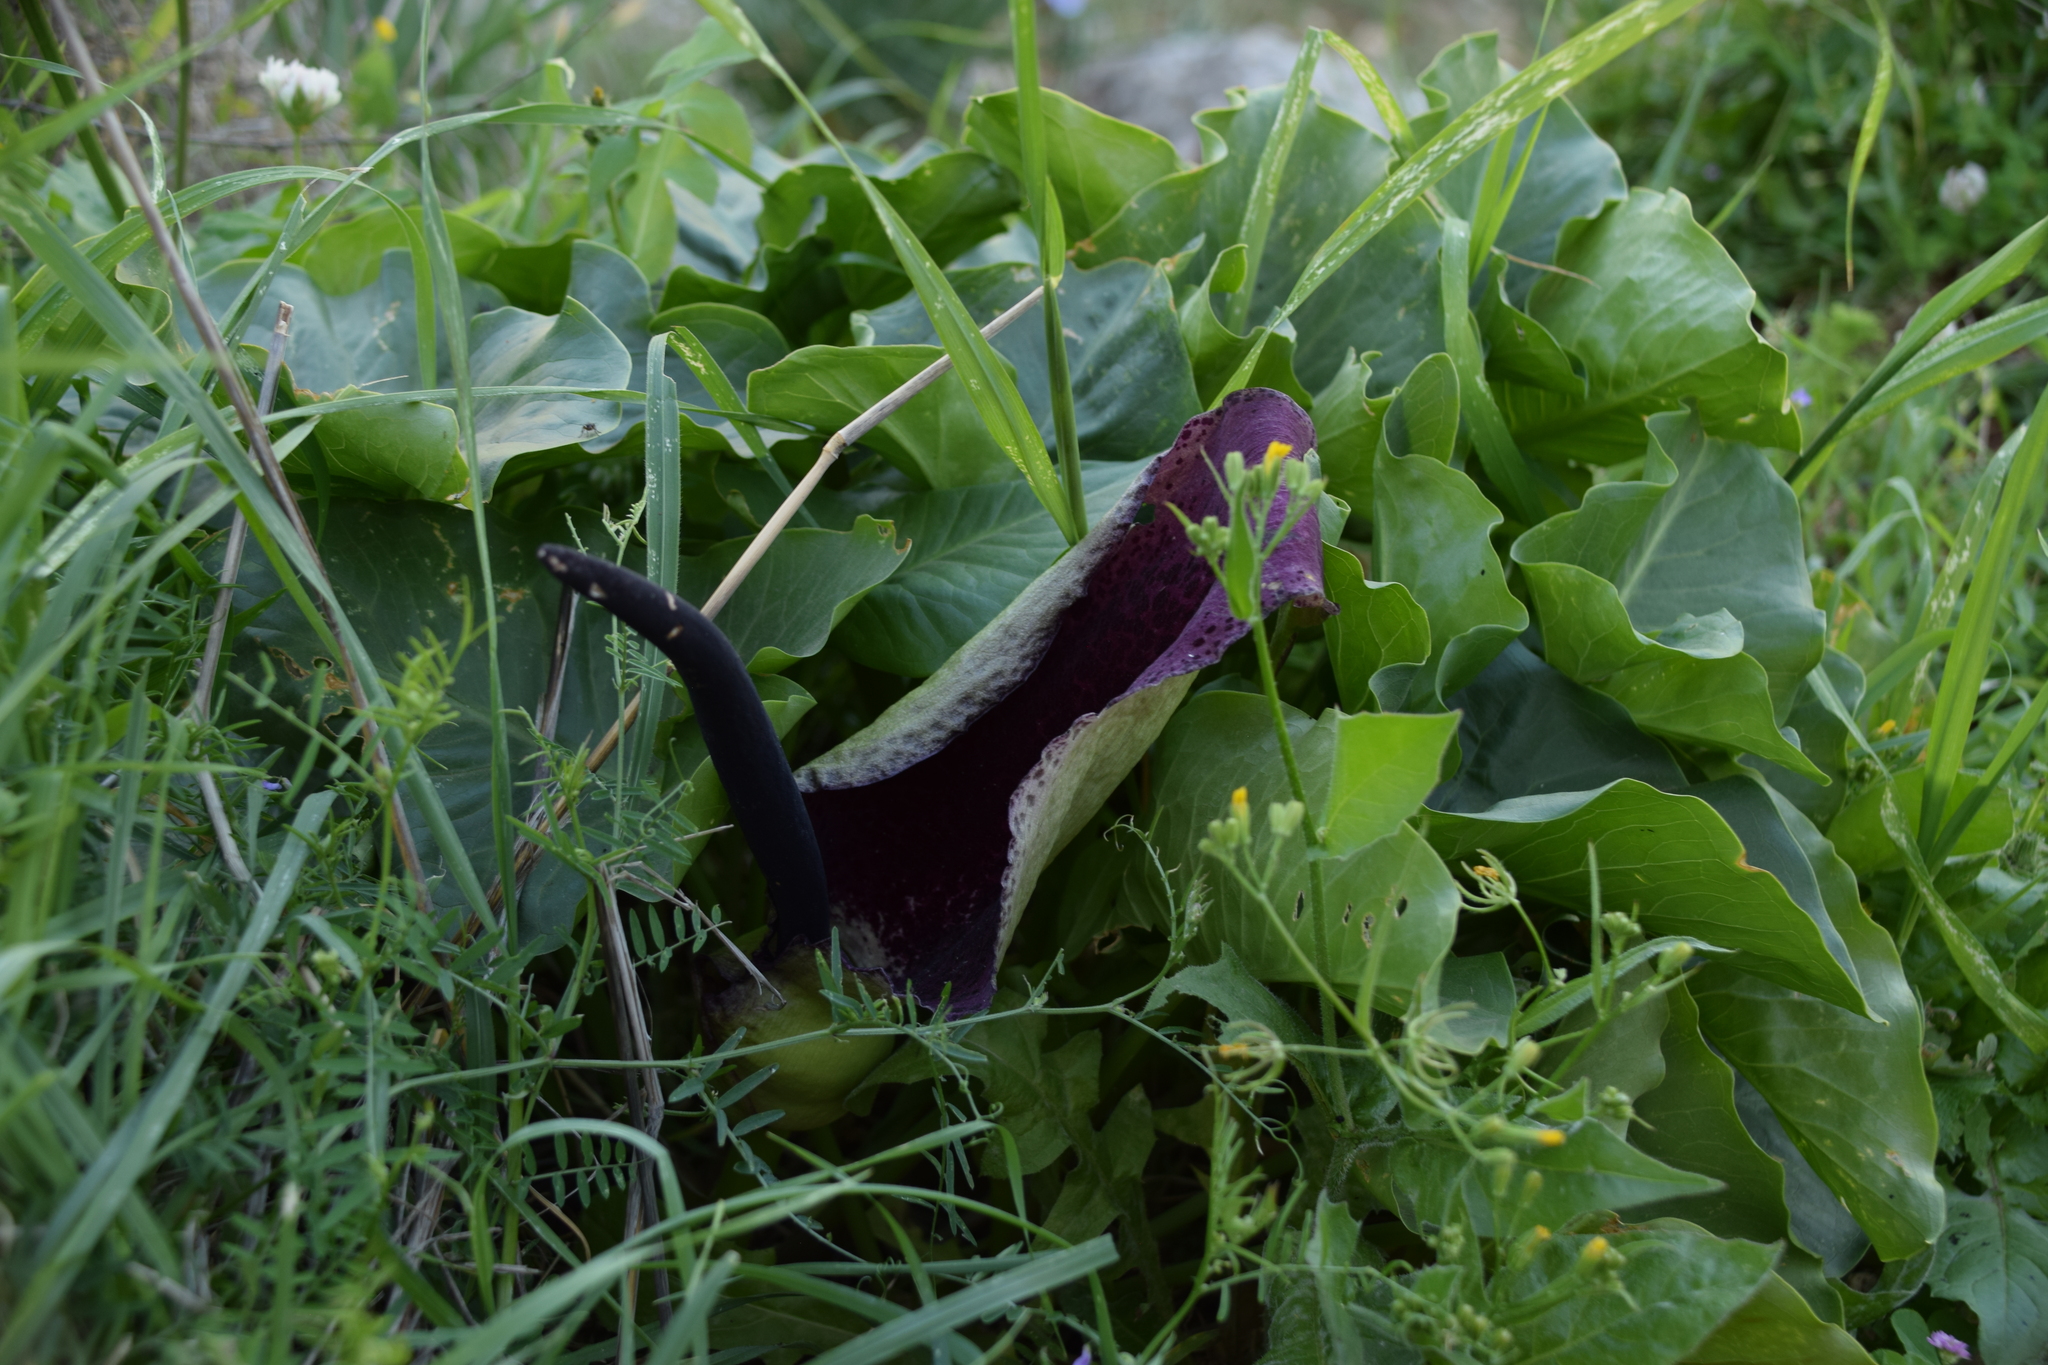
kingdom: Plantae
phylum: Tracheophyta
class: Liliopsida
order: Alismatales
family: Araceae
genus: Arum
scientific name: Arum palaestinum
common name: Solomon's lily
